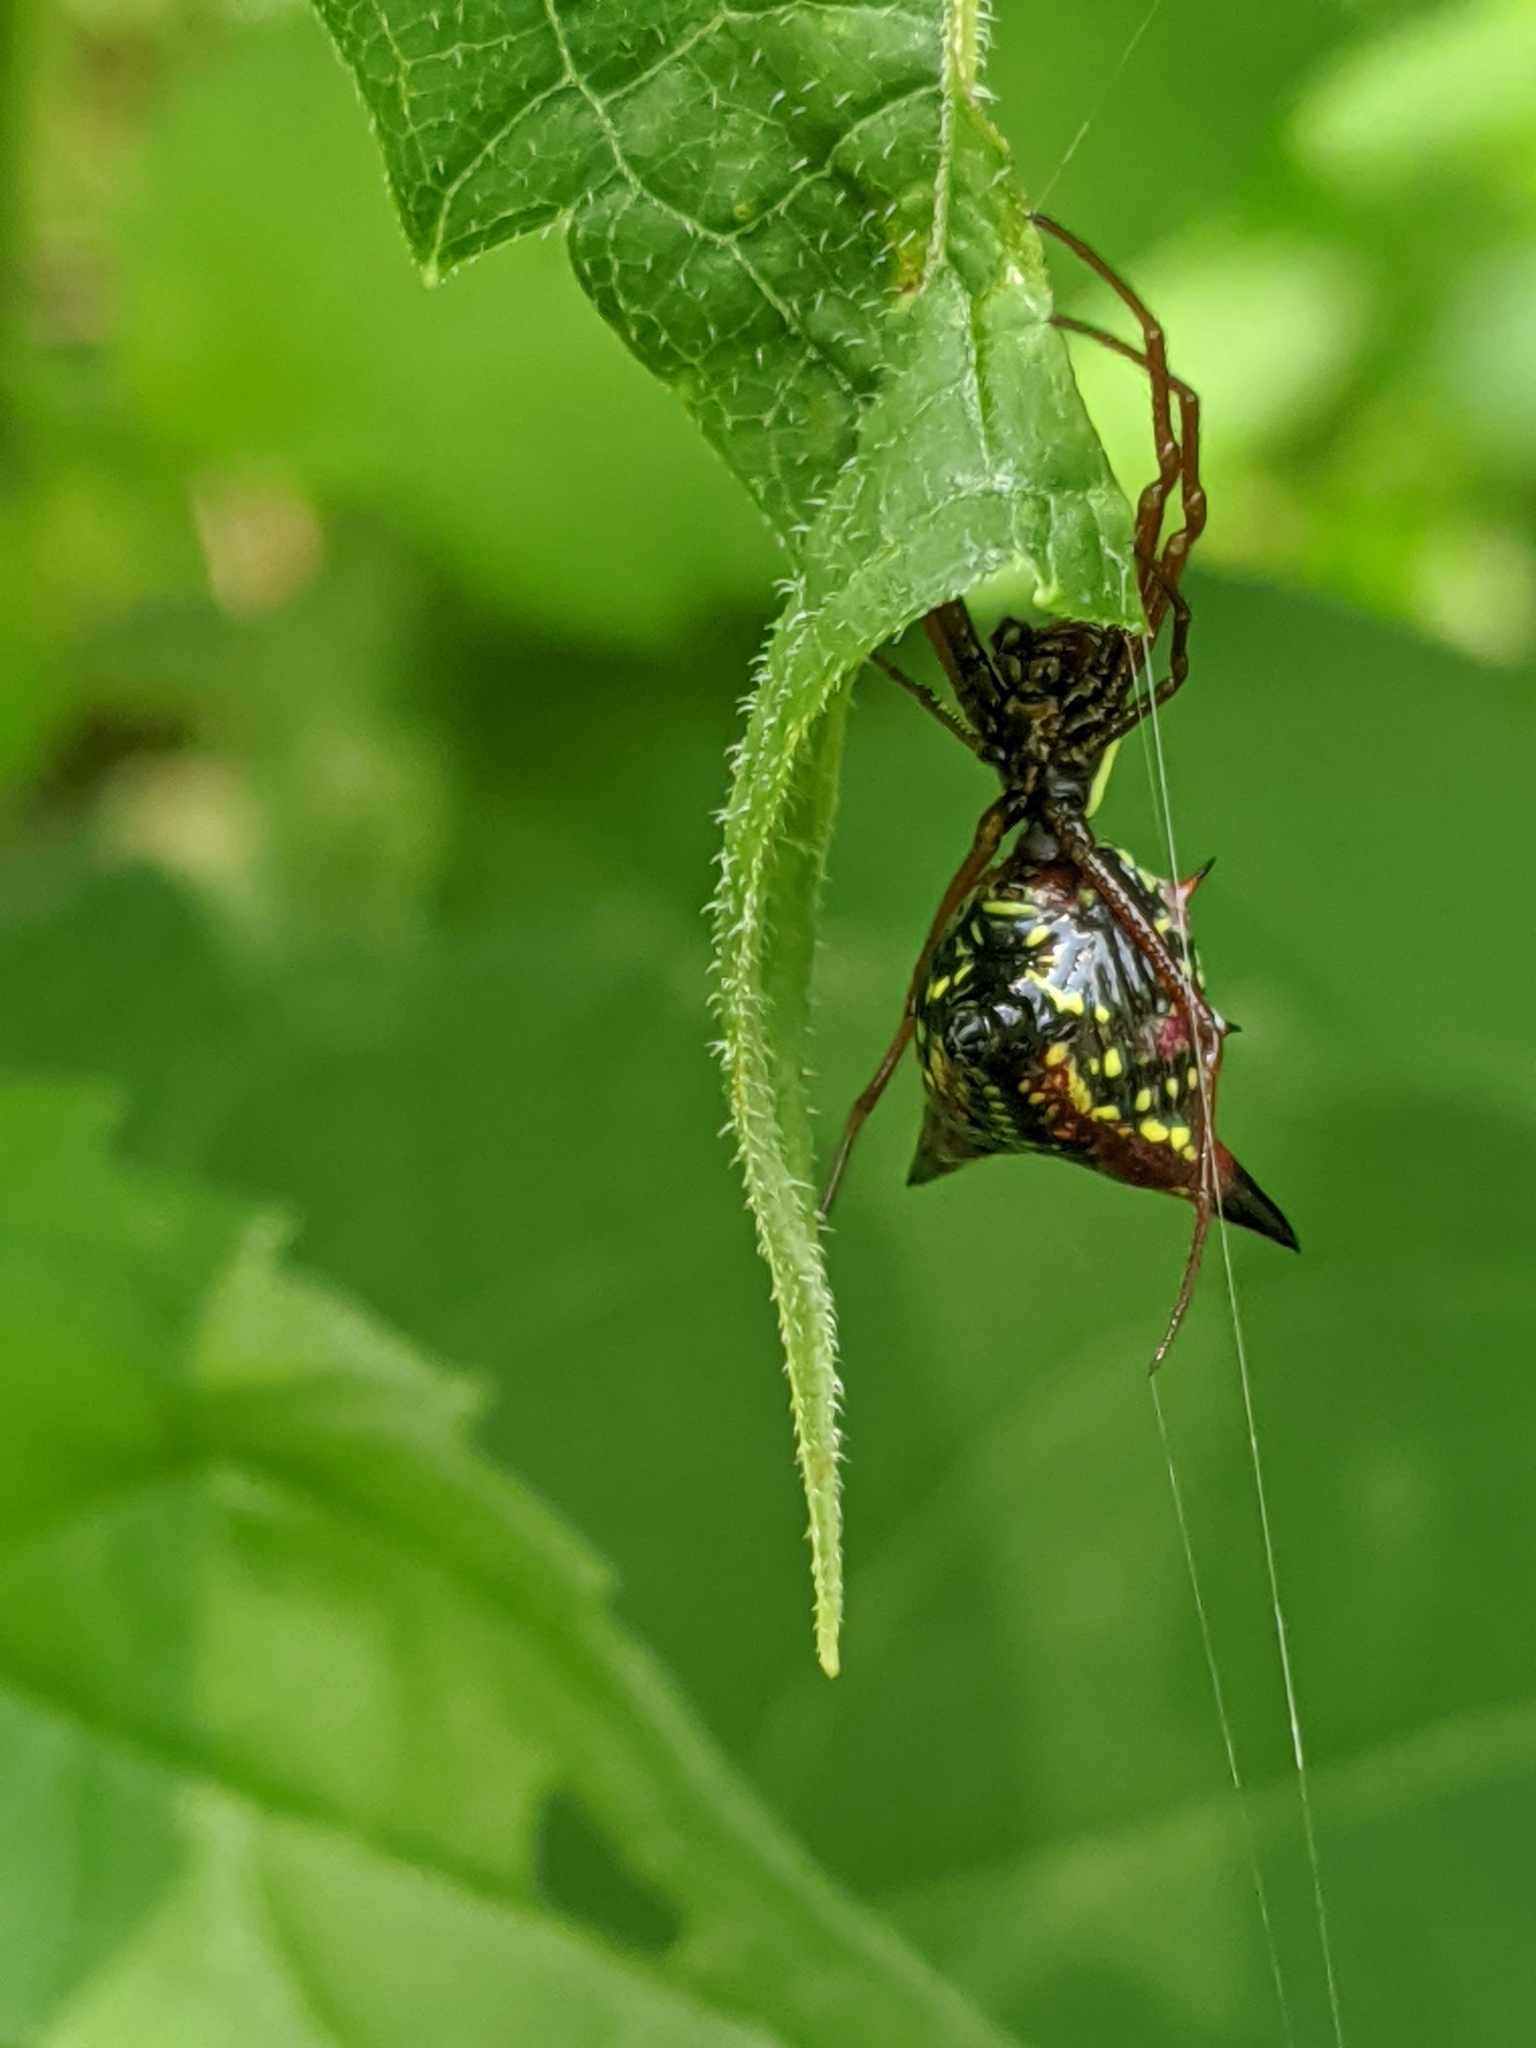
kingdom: Animalia
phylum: Arthropoda
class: Arachnida
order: Araneae
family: Araneidae
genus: Micrathena
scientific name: Micrathena sagittata
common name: Orb weavers
